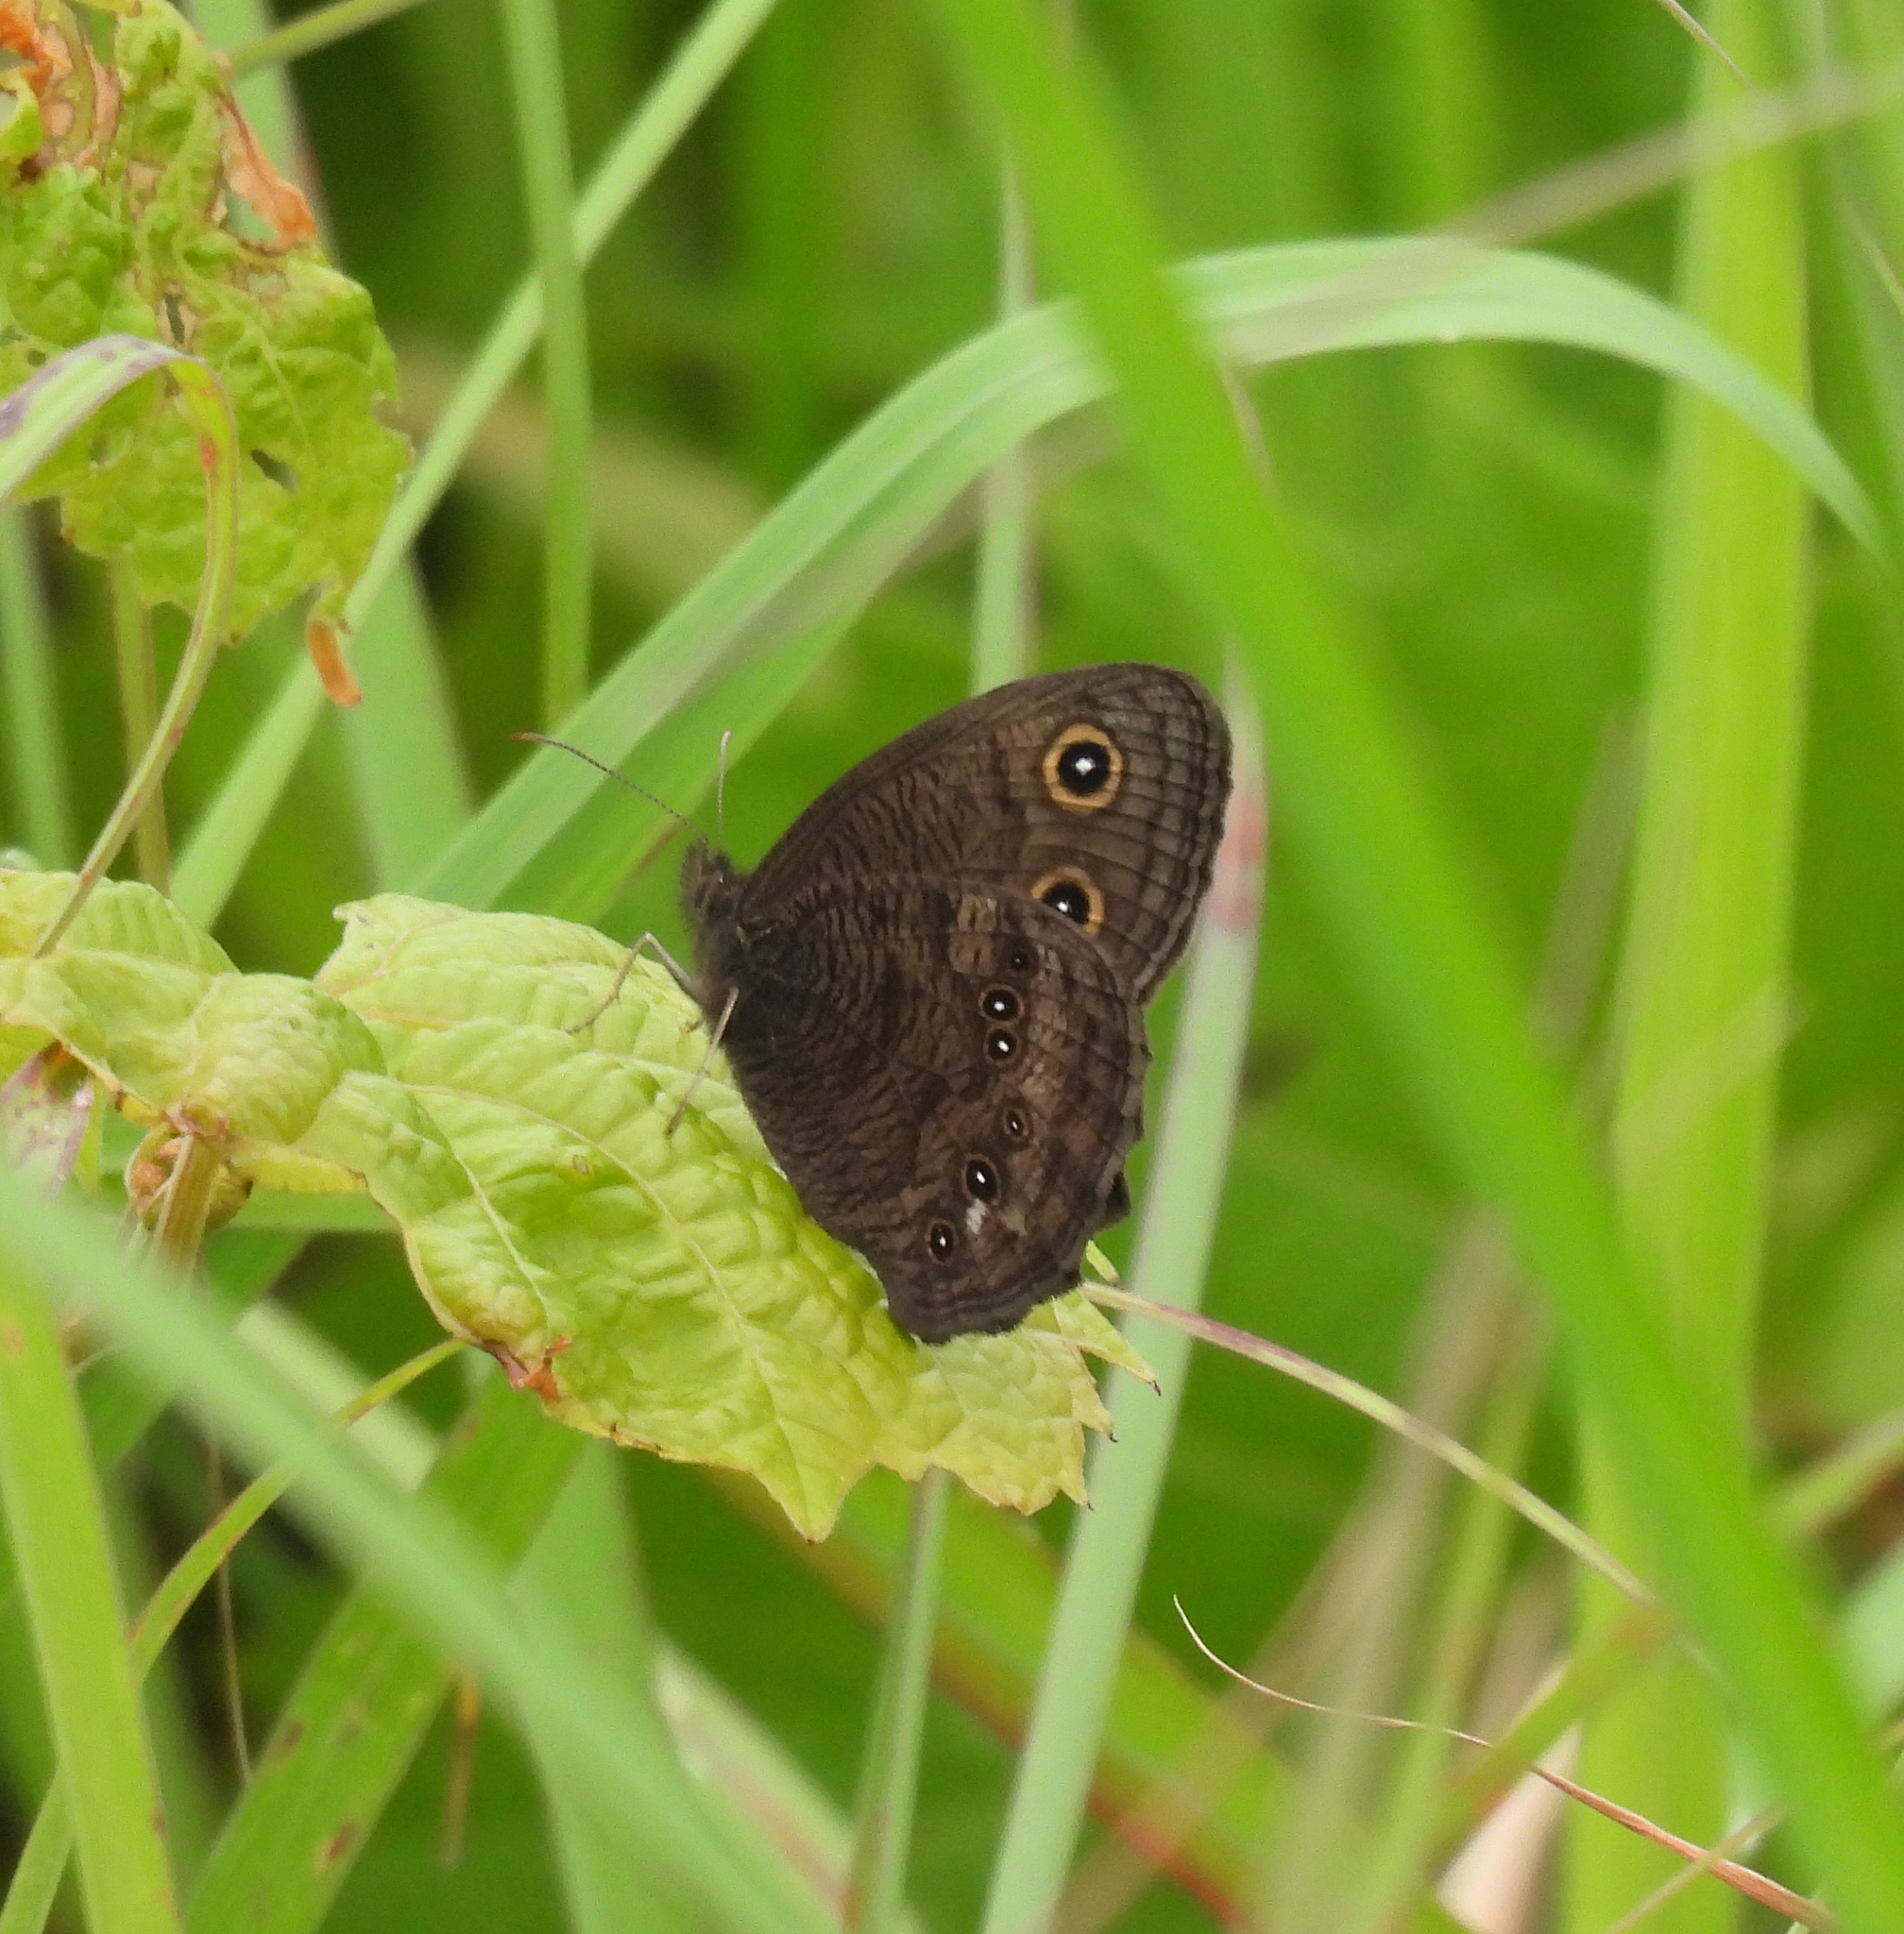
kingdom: Animalia
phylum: Arthropoda
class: Insecta
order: Lepidoptera
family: Nymphalidae
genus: Cercyonis
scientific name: Cercyonis pegala
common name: Common wood-nymph
